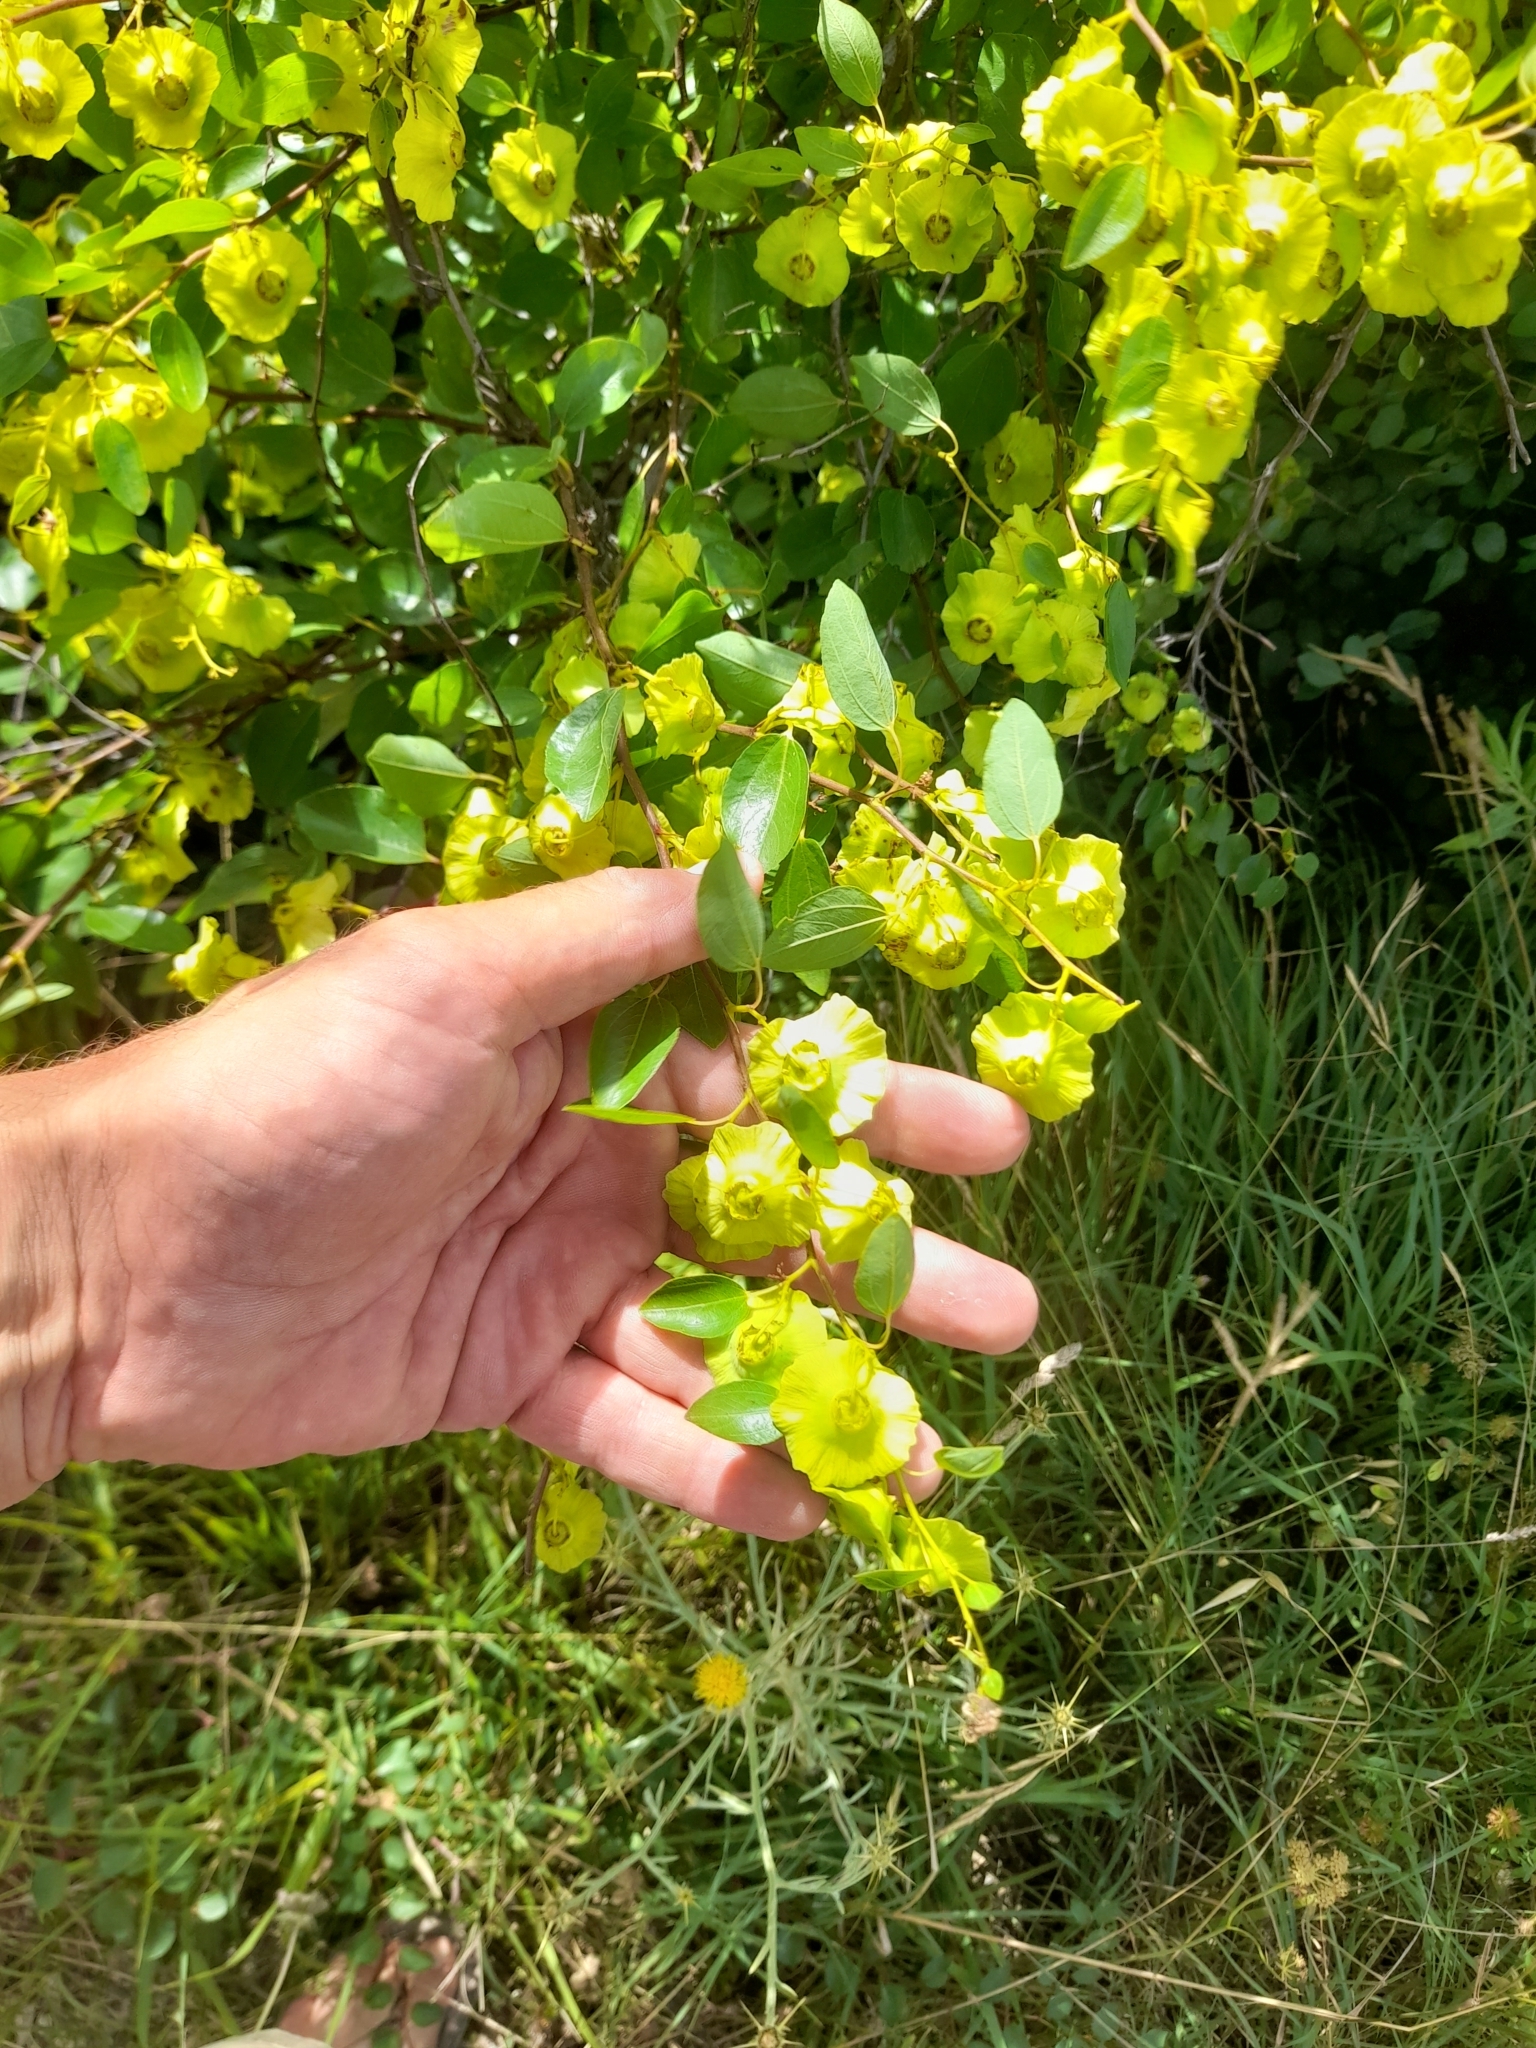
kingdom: Plantae
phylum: Tracheophyta
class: Magnoliopsida
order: Rosales
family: Rhamnaceae
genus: Paliurus
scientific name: Paliurus spina-christi
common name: Jeruselem thorn
